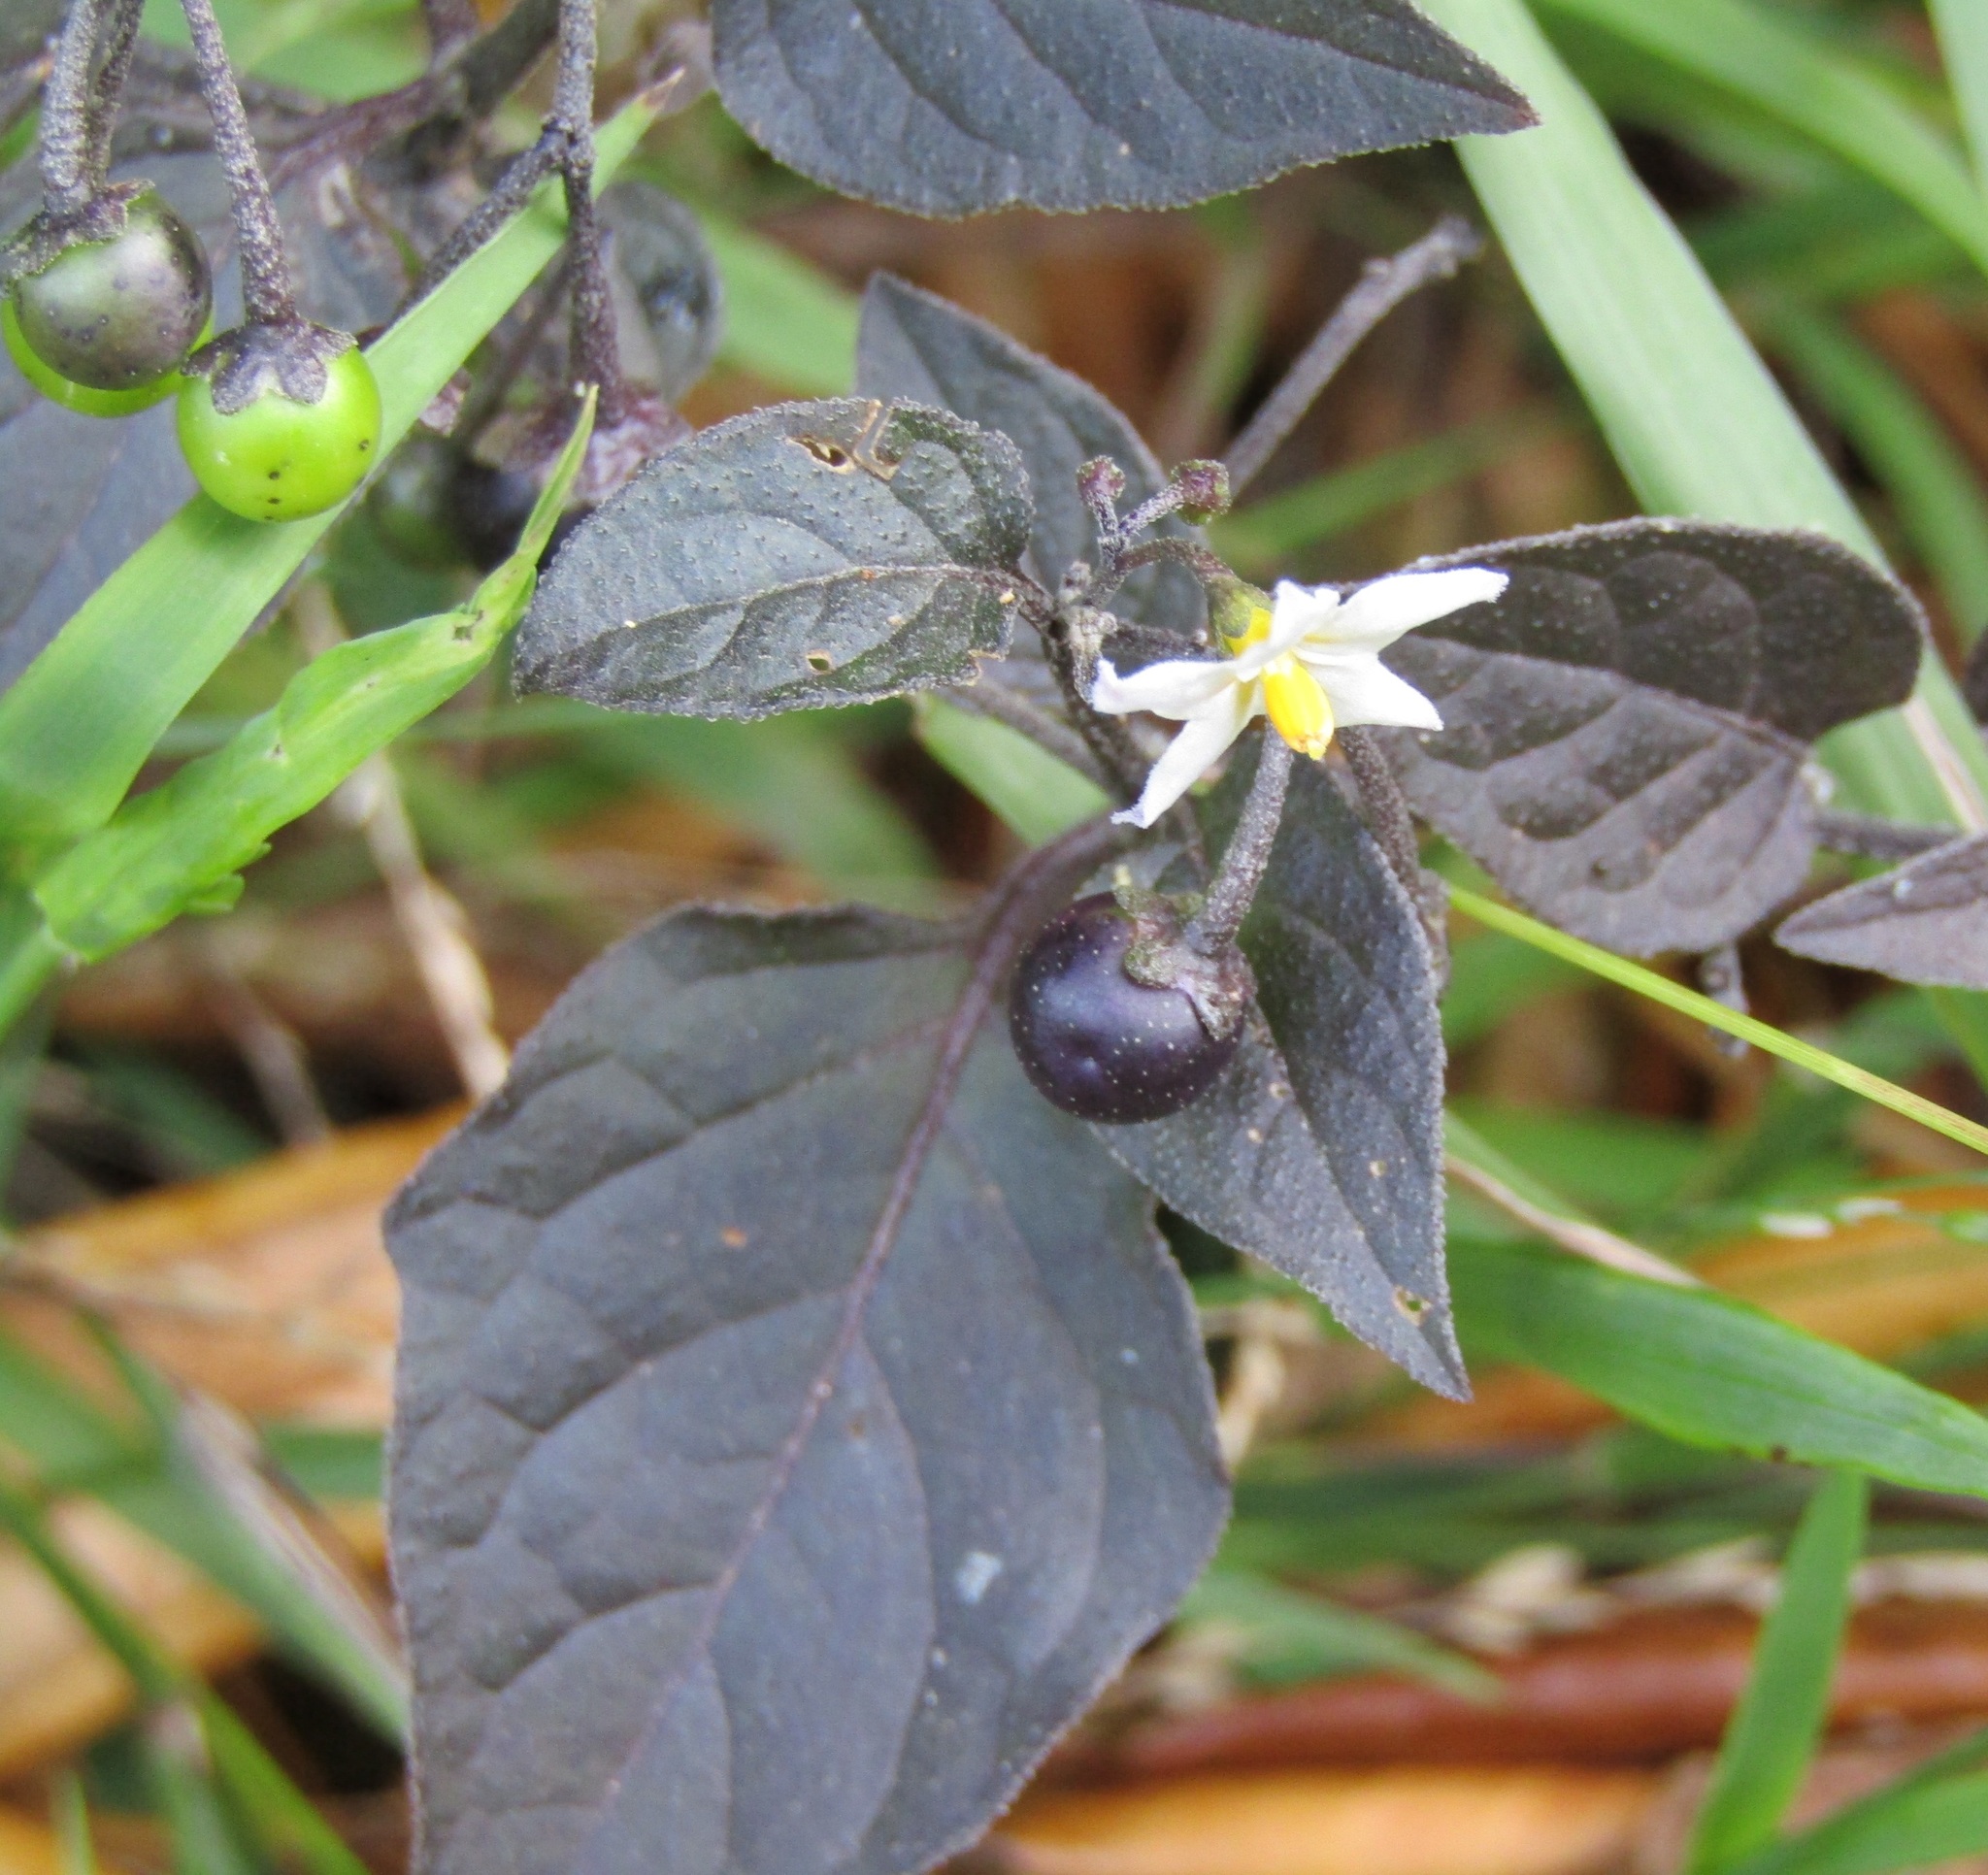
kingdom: Plantae
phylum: Tracheophyta
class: Magnoliopsida
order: Solanales
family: Solanaceae
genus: Solanum
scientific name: Solanum nigrum
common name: Black nightshade
